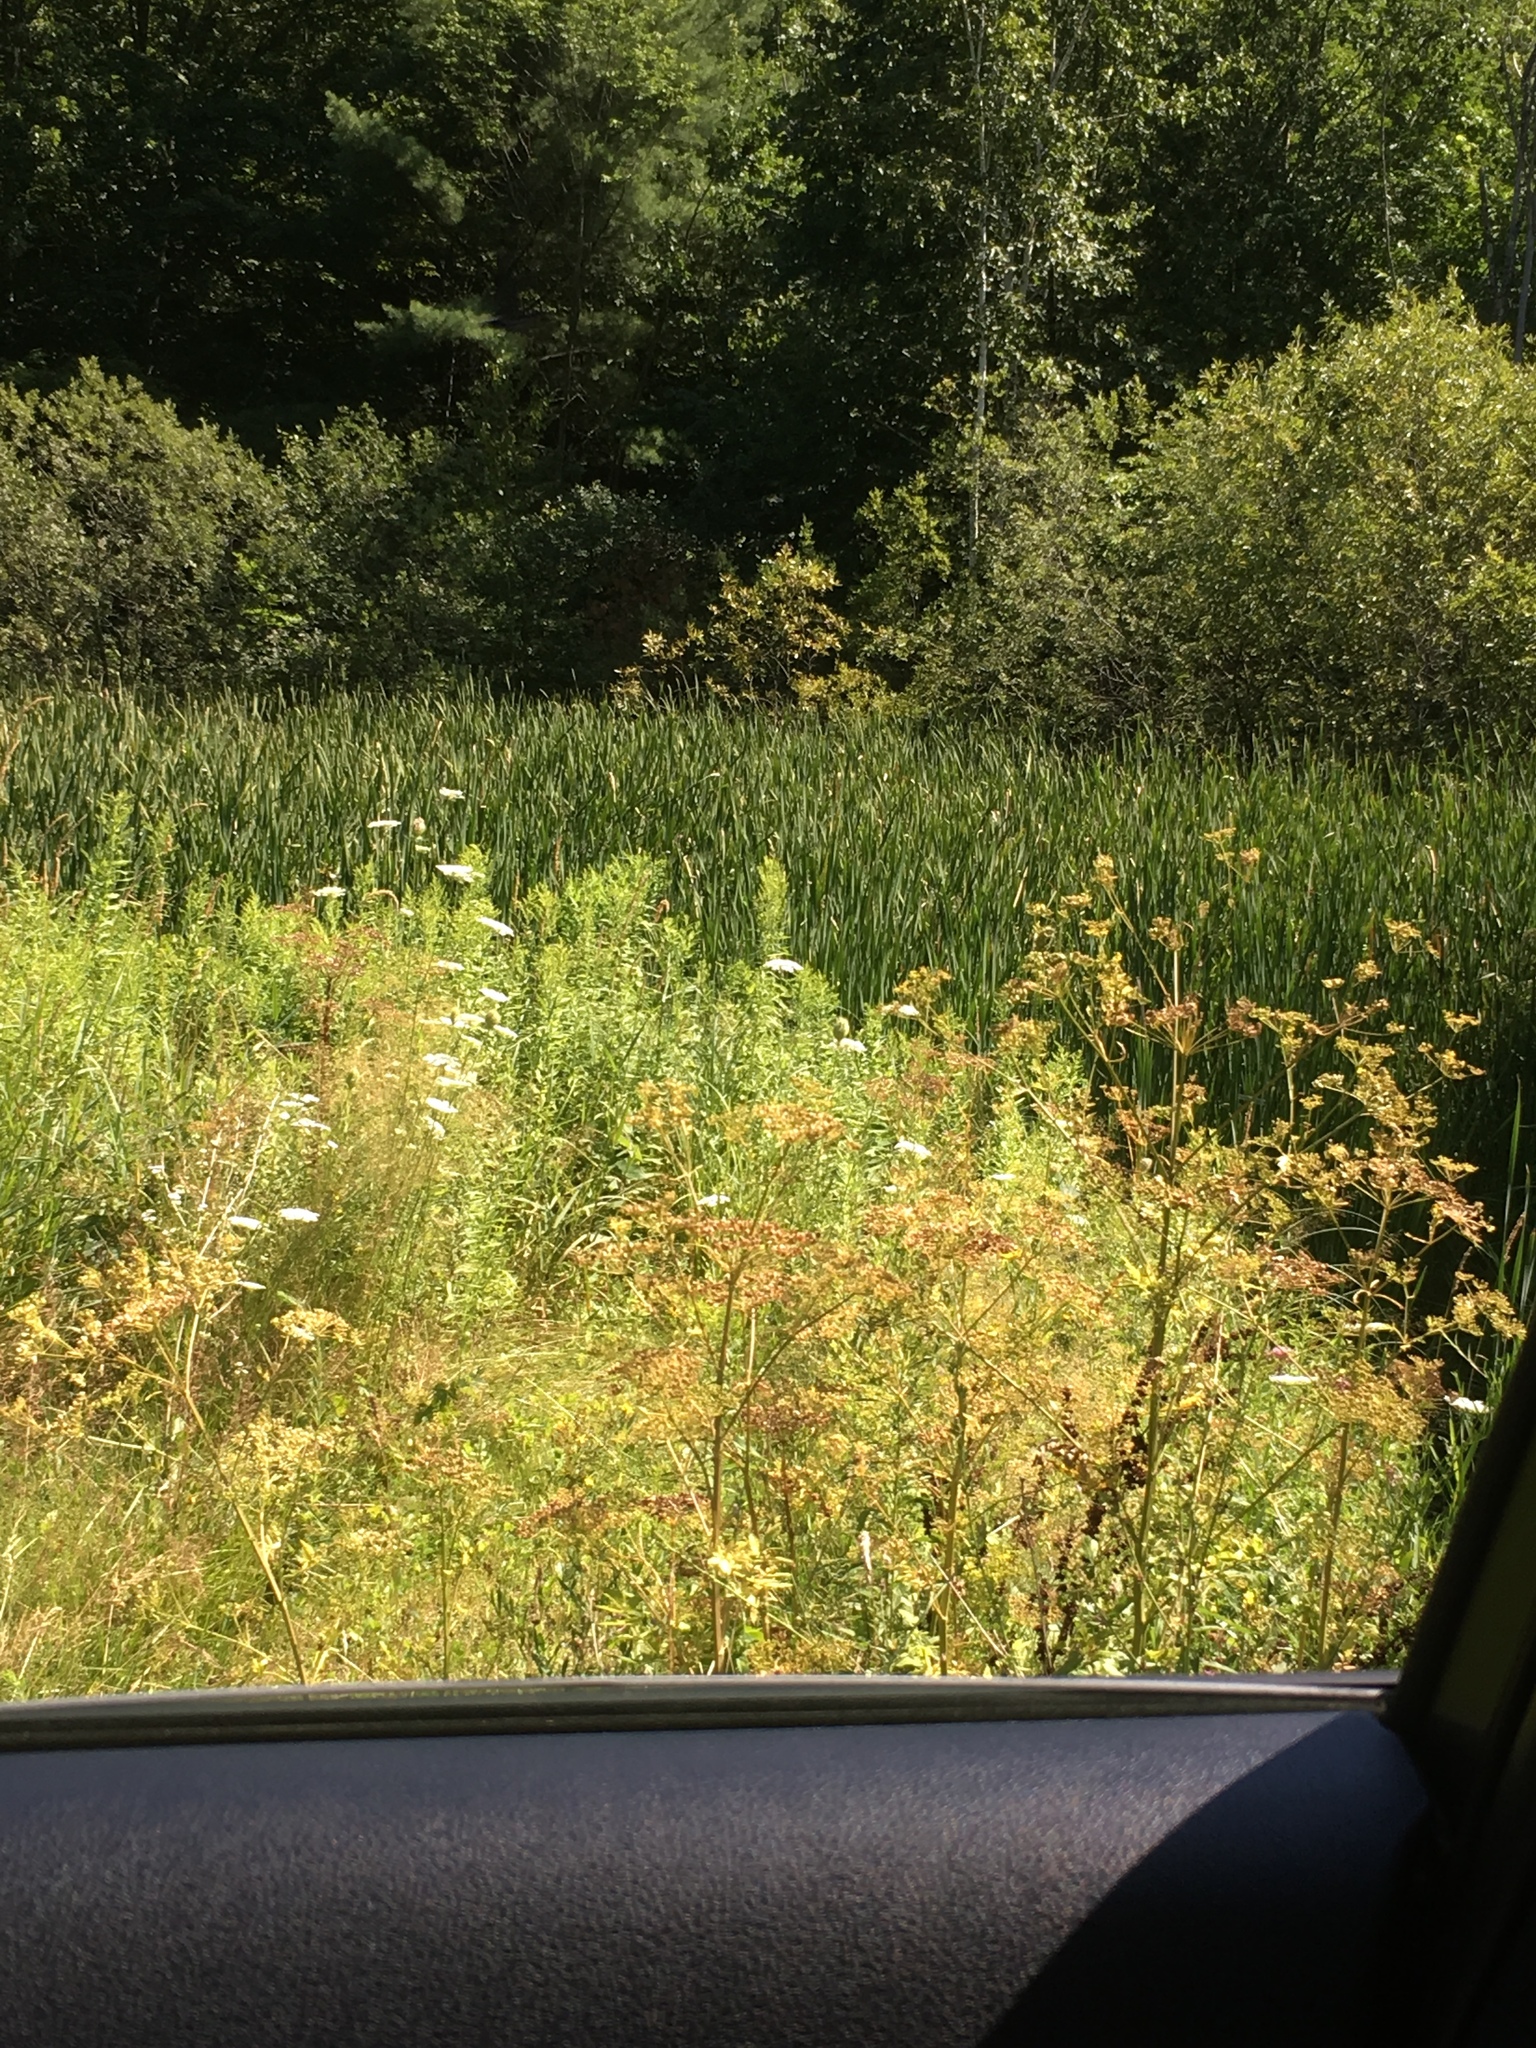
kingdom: Plantae
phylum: Tracheophyta
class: Magnoliopsida
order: Apiales
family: Apiaceae
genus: Pastinaca
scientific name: Pastinaca sativa
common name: Wild parsnip
